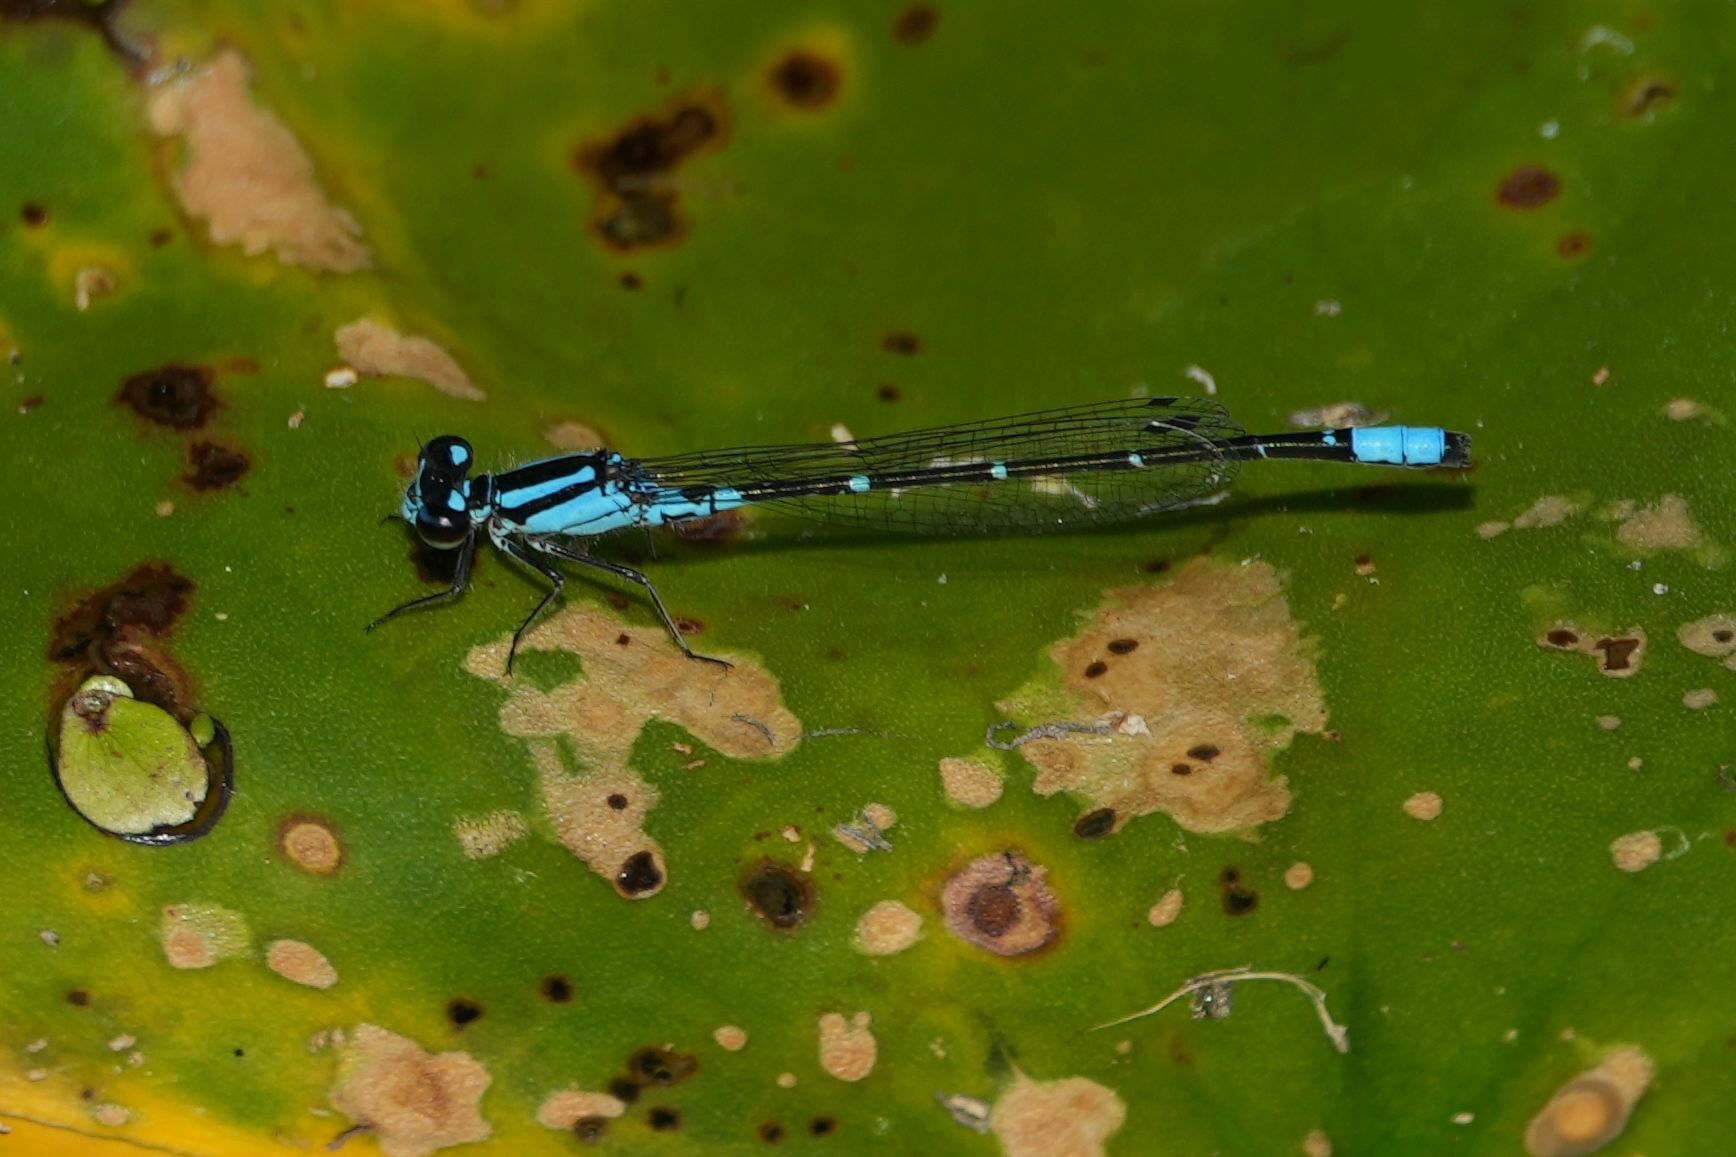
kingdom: Animalia
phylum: Arthropoda
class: Insecta
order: Odonata
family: Coenagrionidae
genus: Enallagma
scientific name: Enallagma geminatum
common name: Skimming bluet
